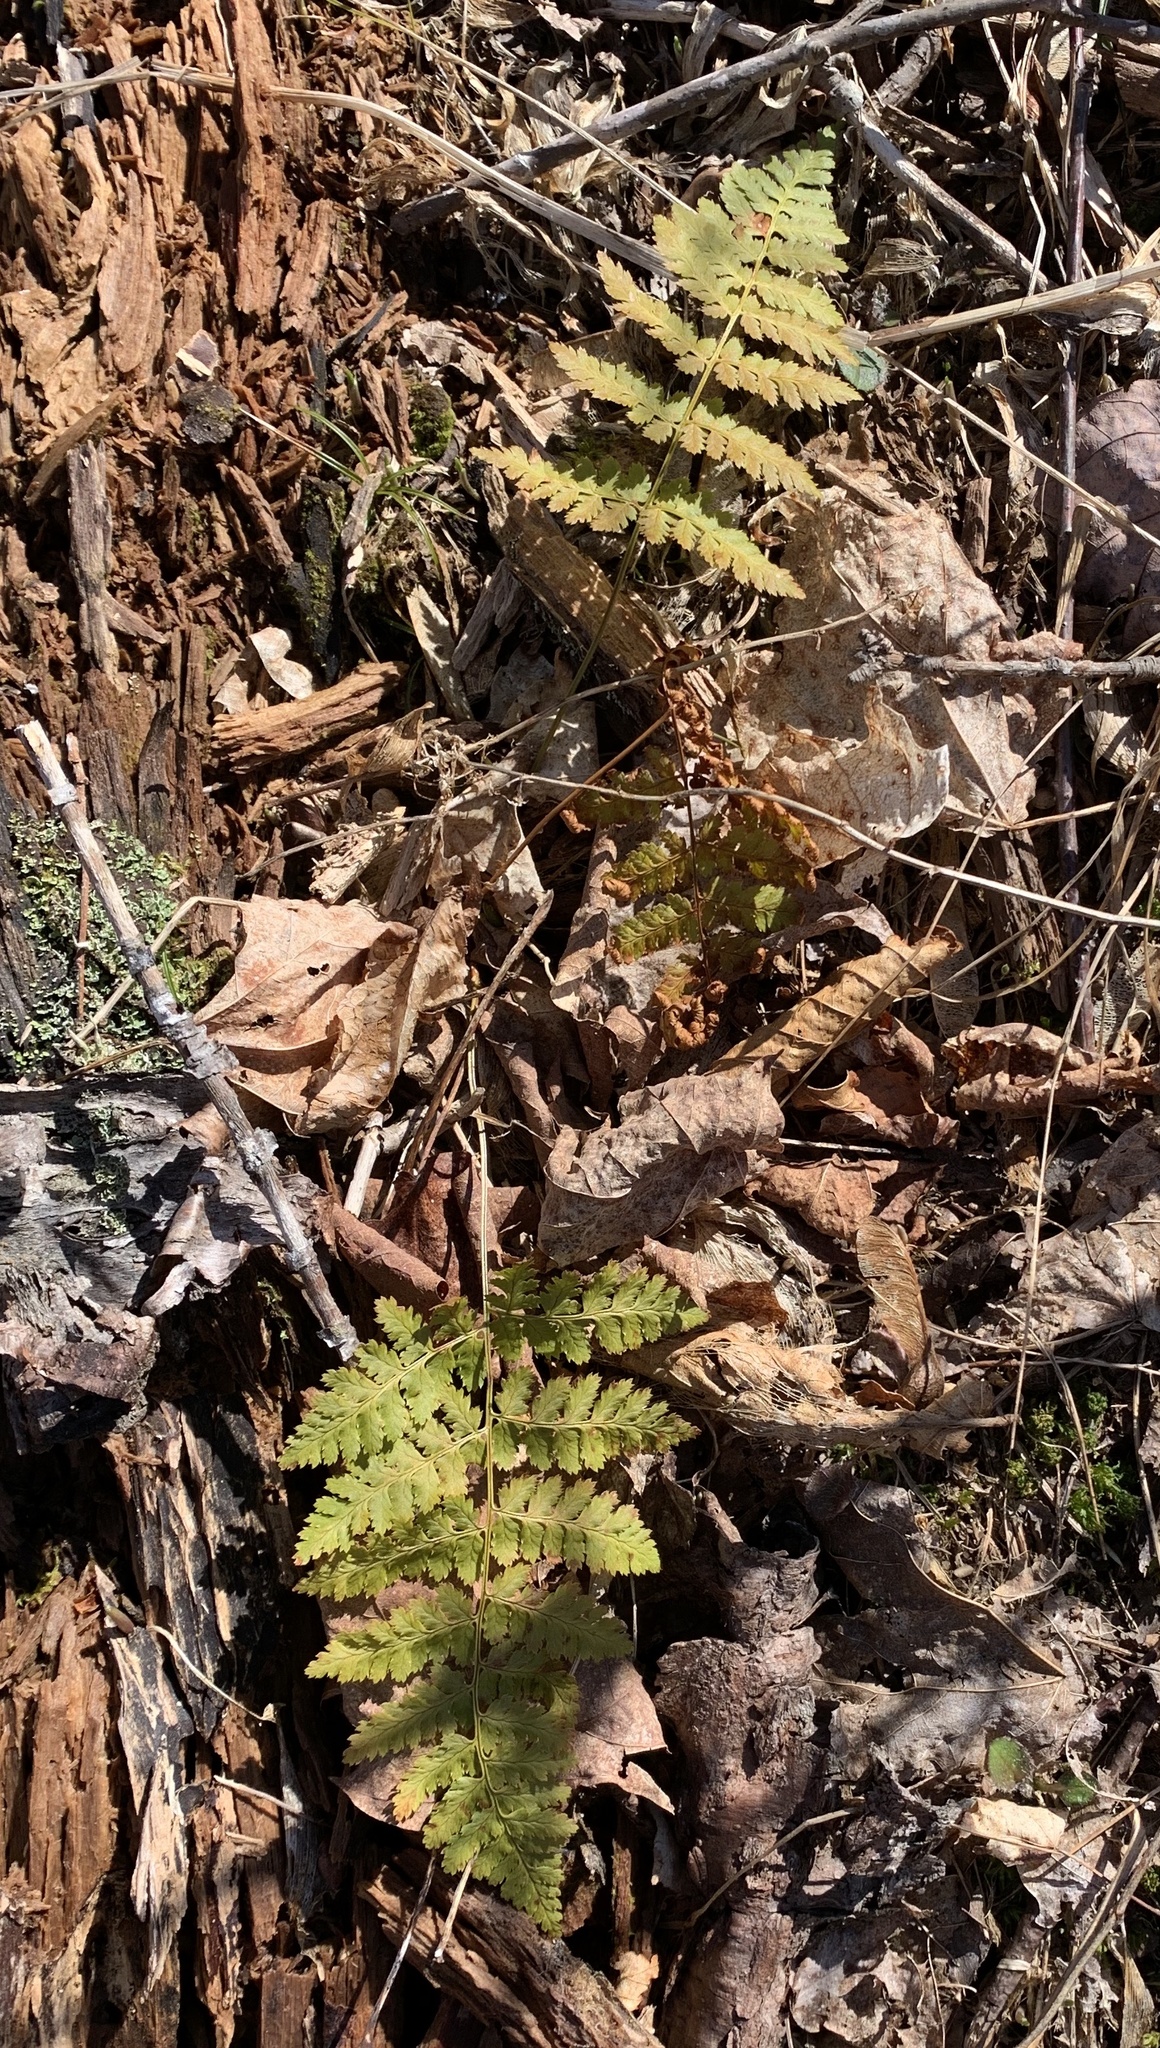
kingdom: Plantae
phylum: Tracheophyta
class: Polypodiopsida
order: Polypodiales
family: Dryopteridaceae
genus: Dryopteris
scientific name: Dryopteris intermedia
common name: Evergreen wood fern
